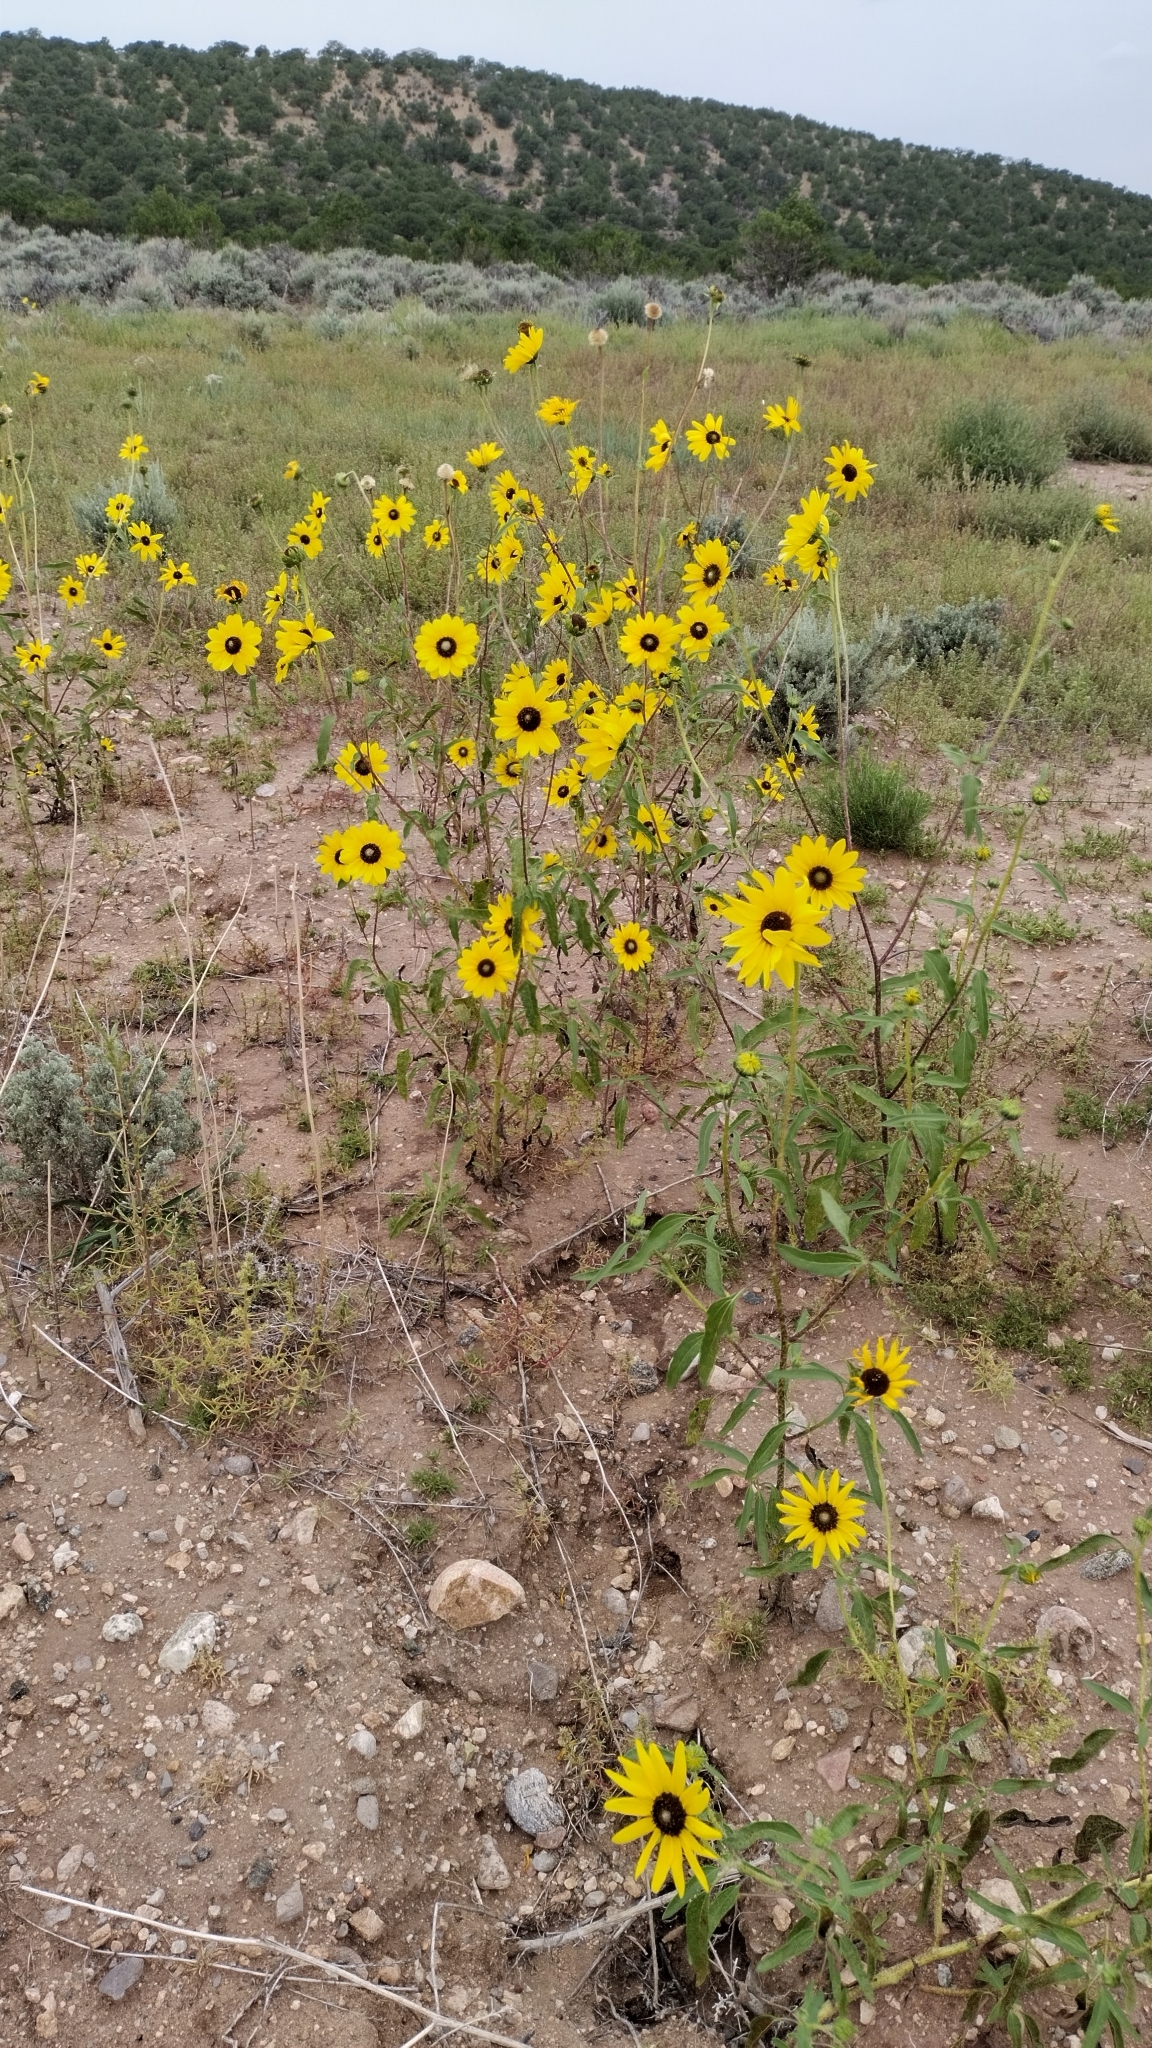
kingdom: Plantae
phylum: Tracheophyta
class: Magnoliopsida
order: Asterales
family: Asteraceae
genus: Helianthus
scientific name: Helianthus petiolaris
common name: Lesser sunflower
